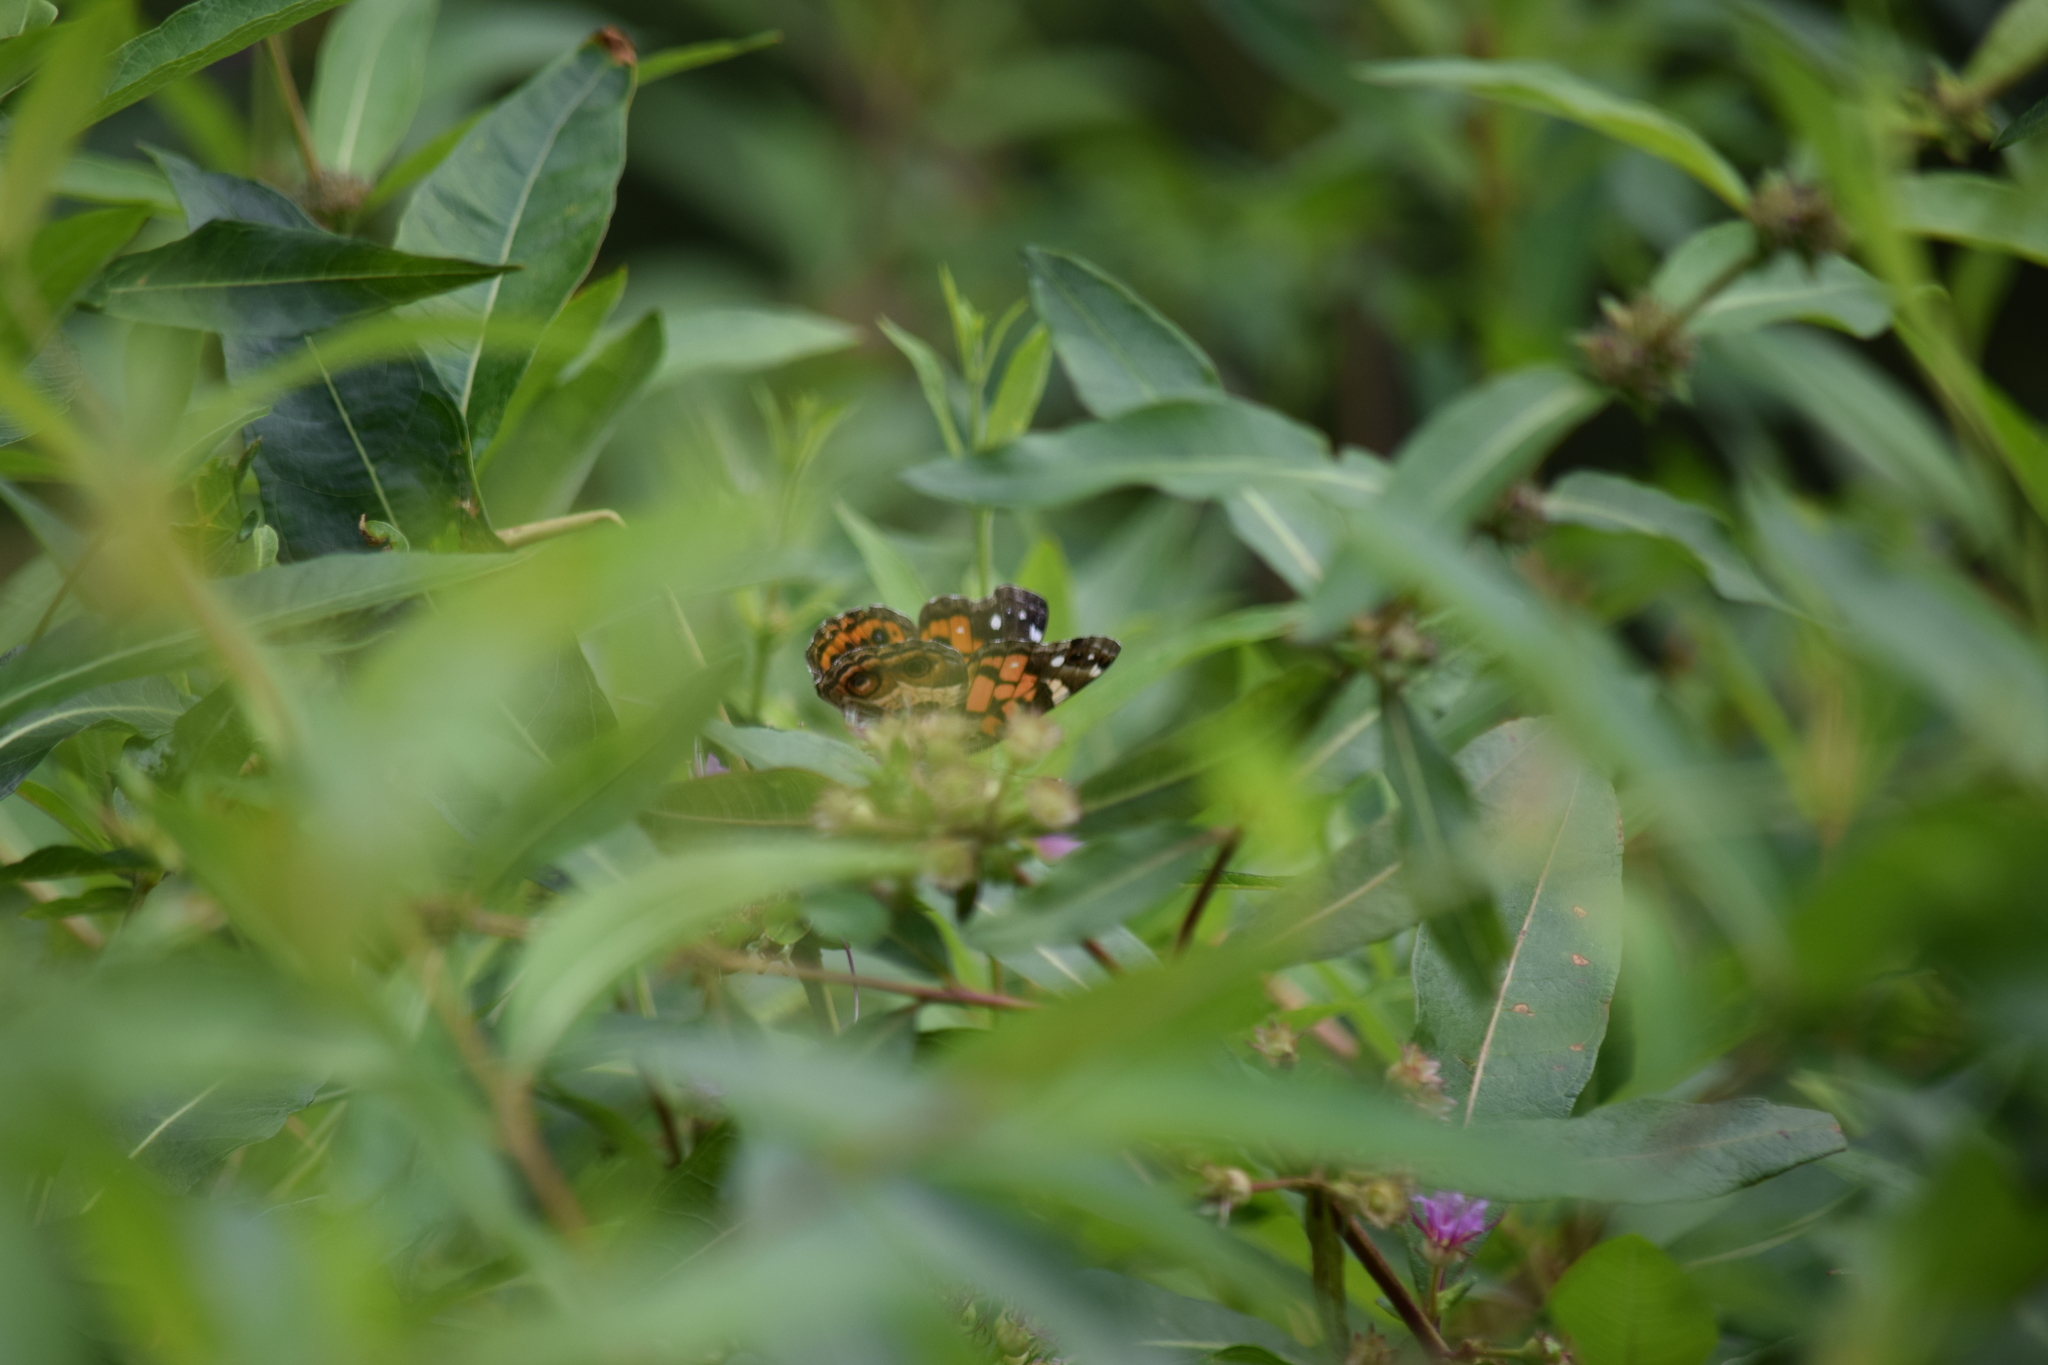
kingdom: Animalia
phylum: Arthropoda
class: Insecta
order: Lepidoptera
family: Nymphalidae
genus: Vanessa
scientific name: Vanessa virginiensis
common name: American lady
